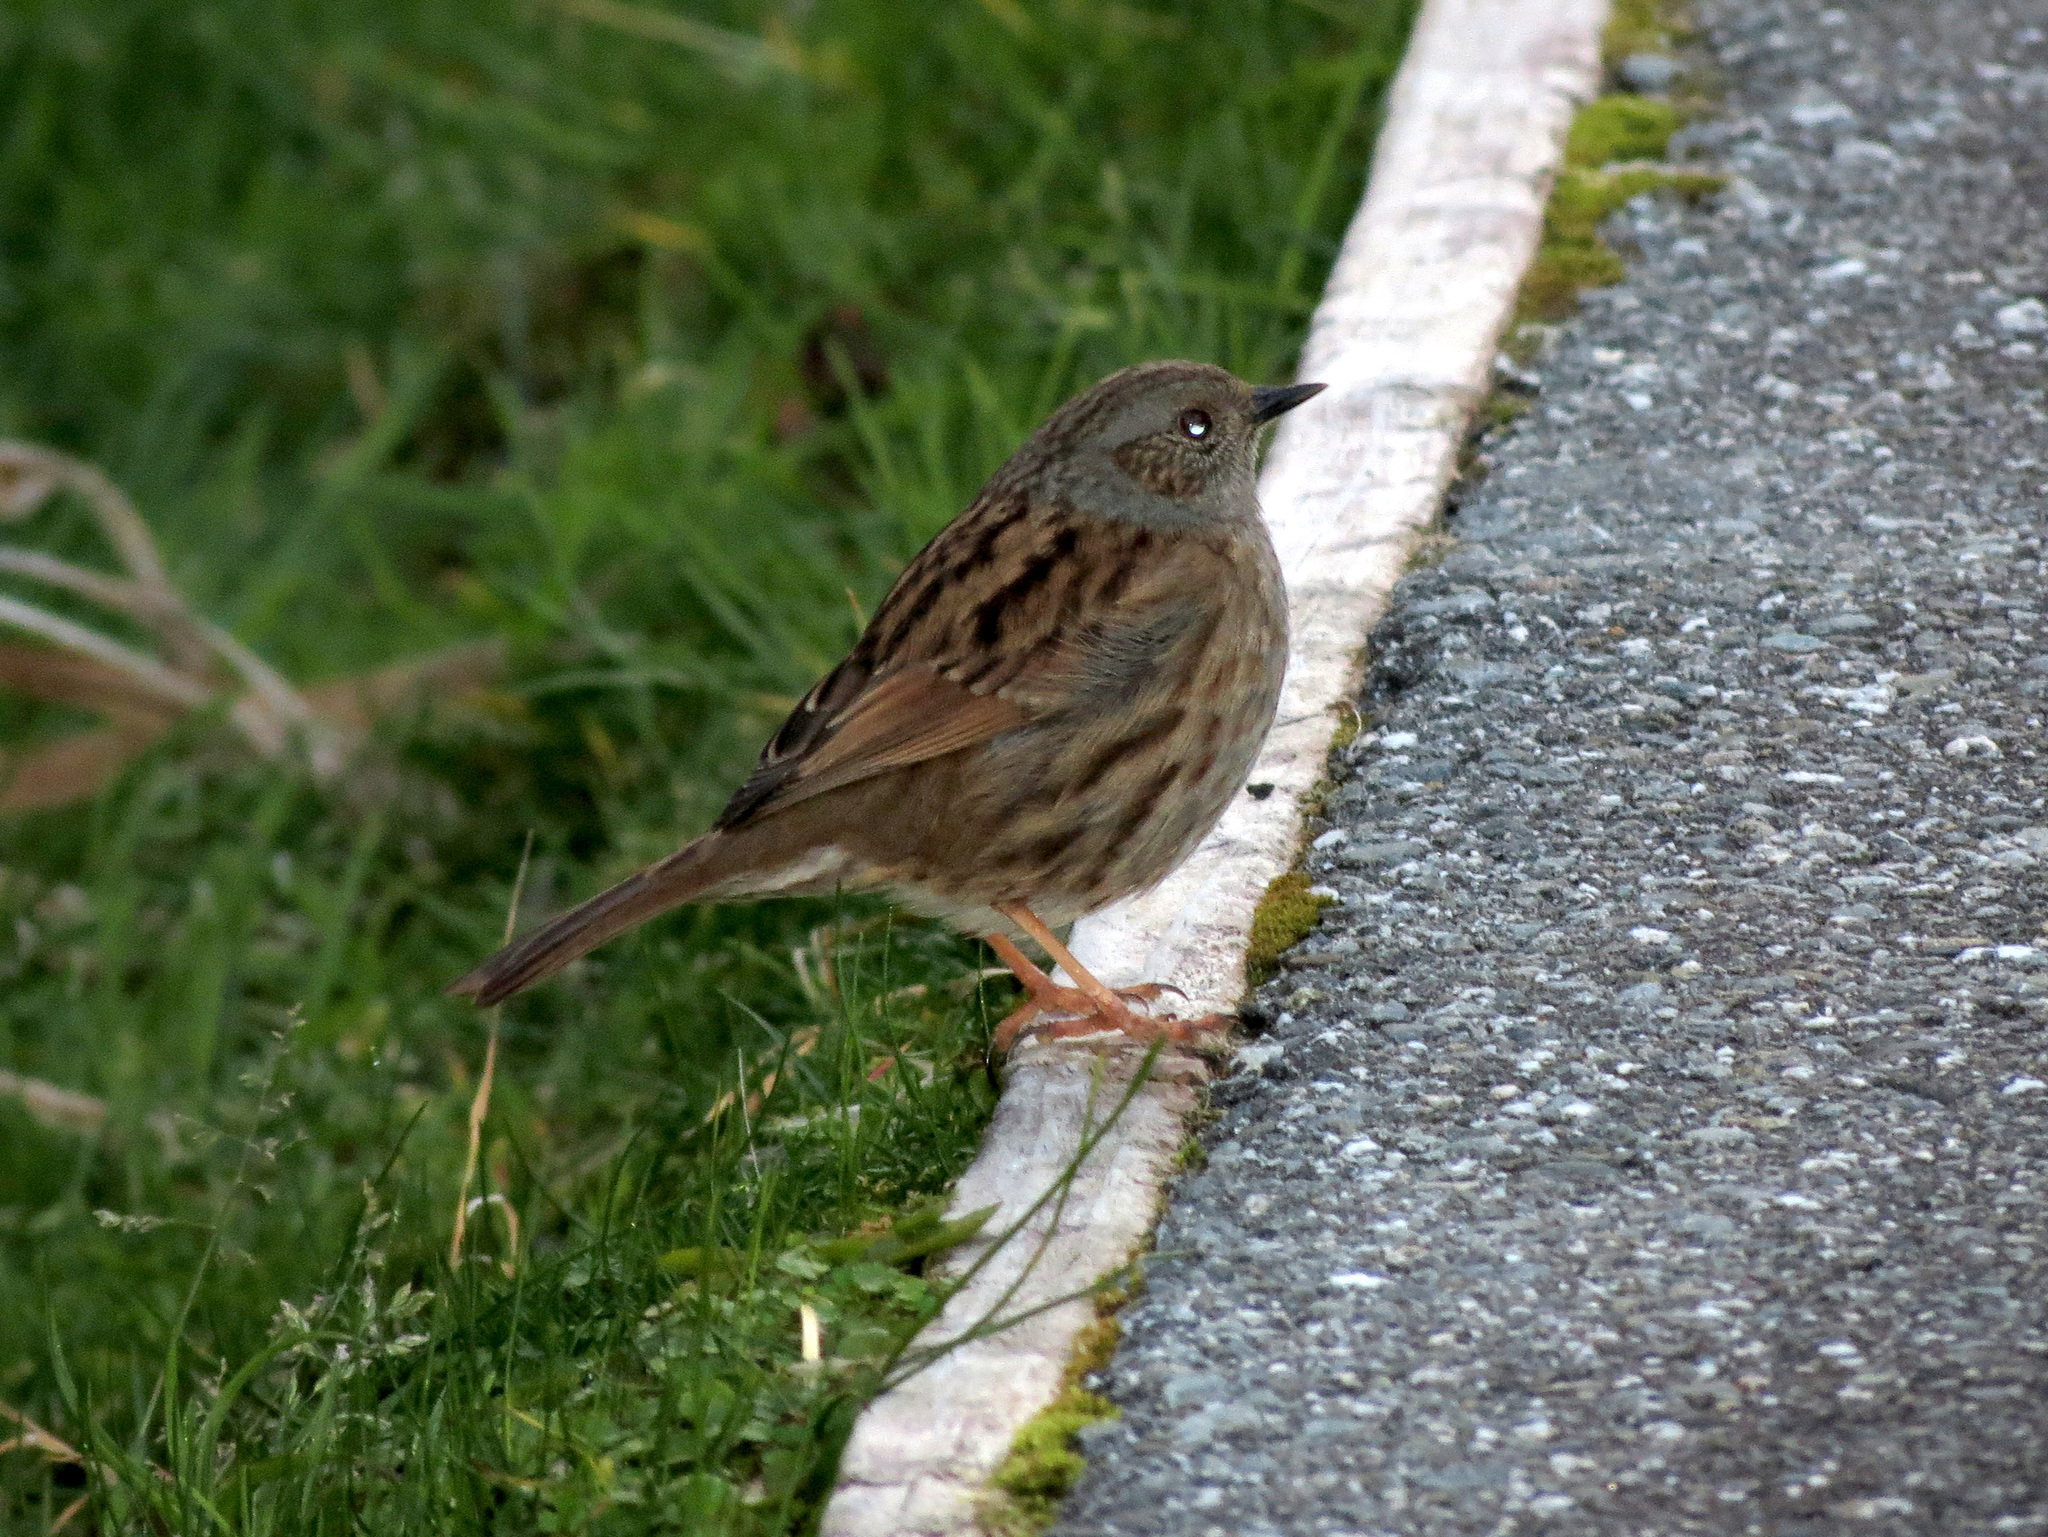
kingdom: Animalia
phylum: Chordata
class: Aves
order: Passeriformes
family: Prunellidae
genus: Prunella
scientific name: Prunella modularis
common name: Dunnock
